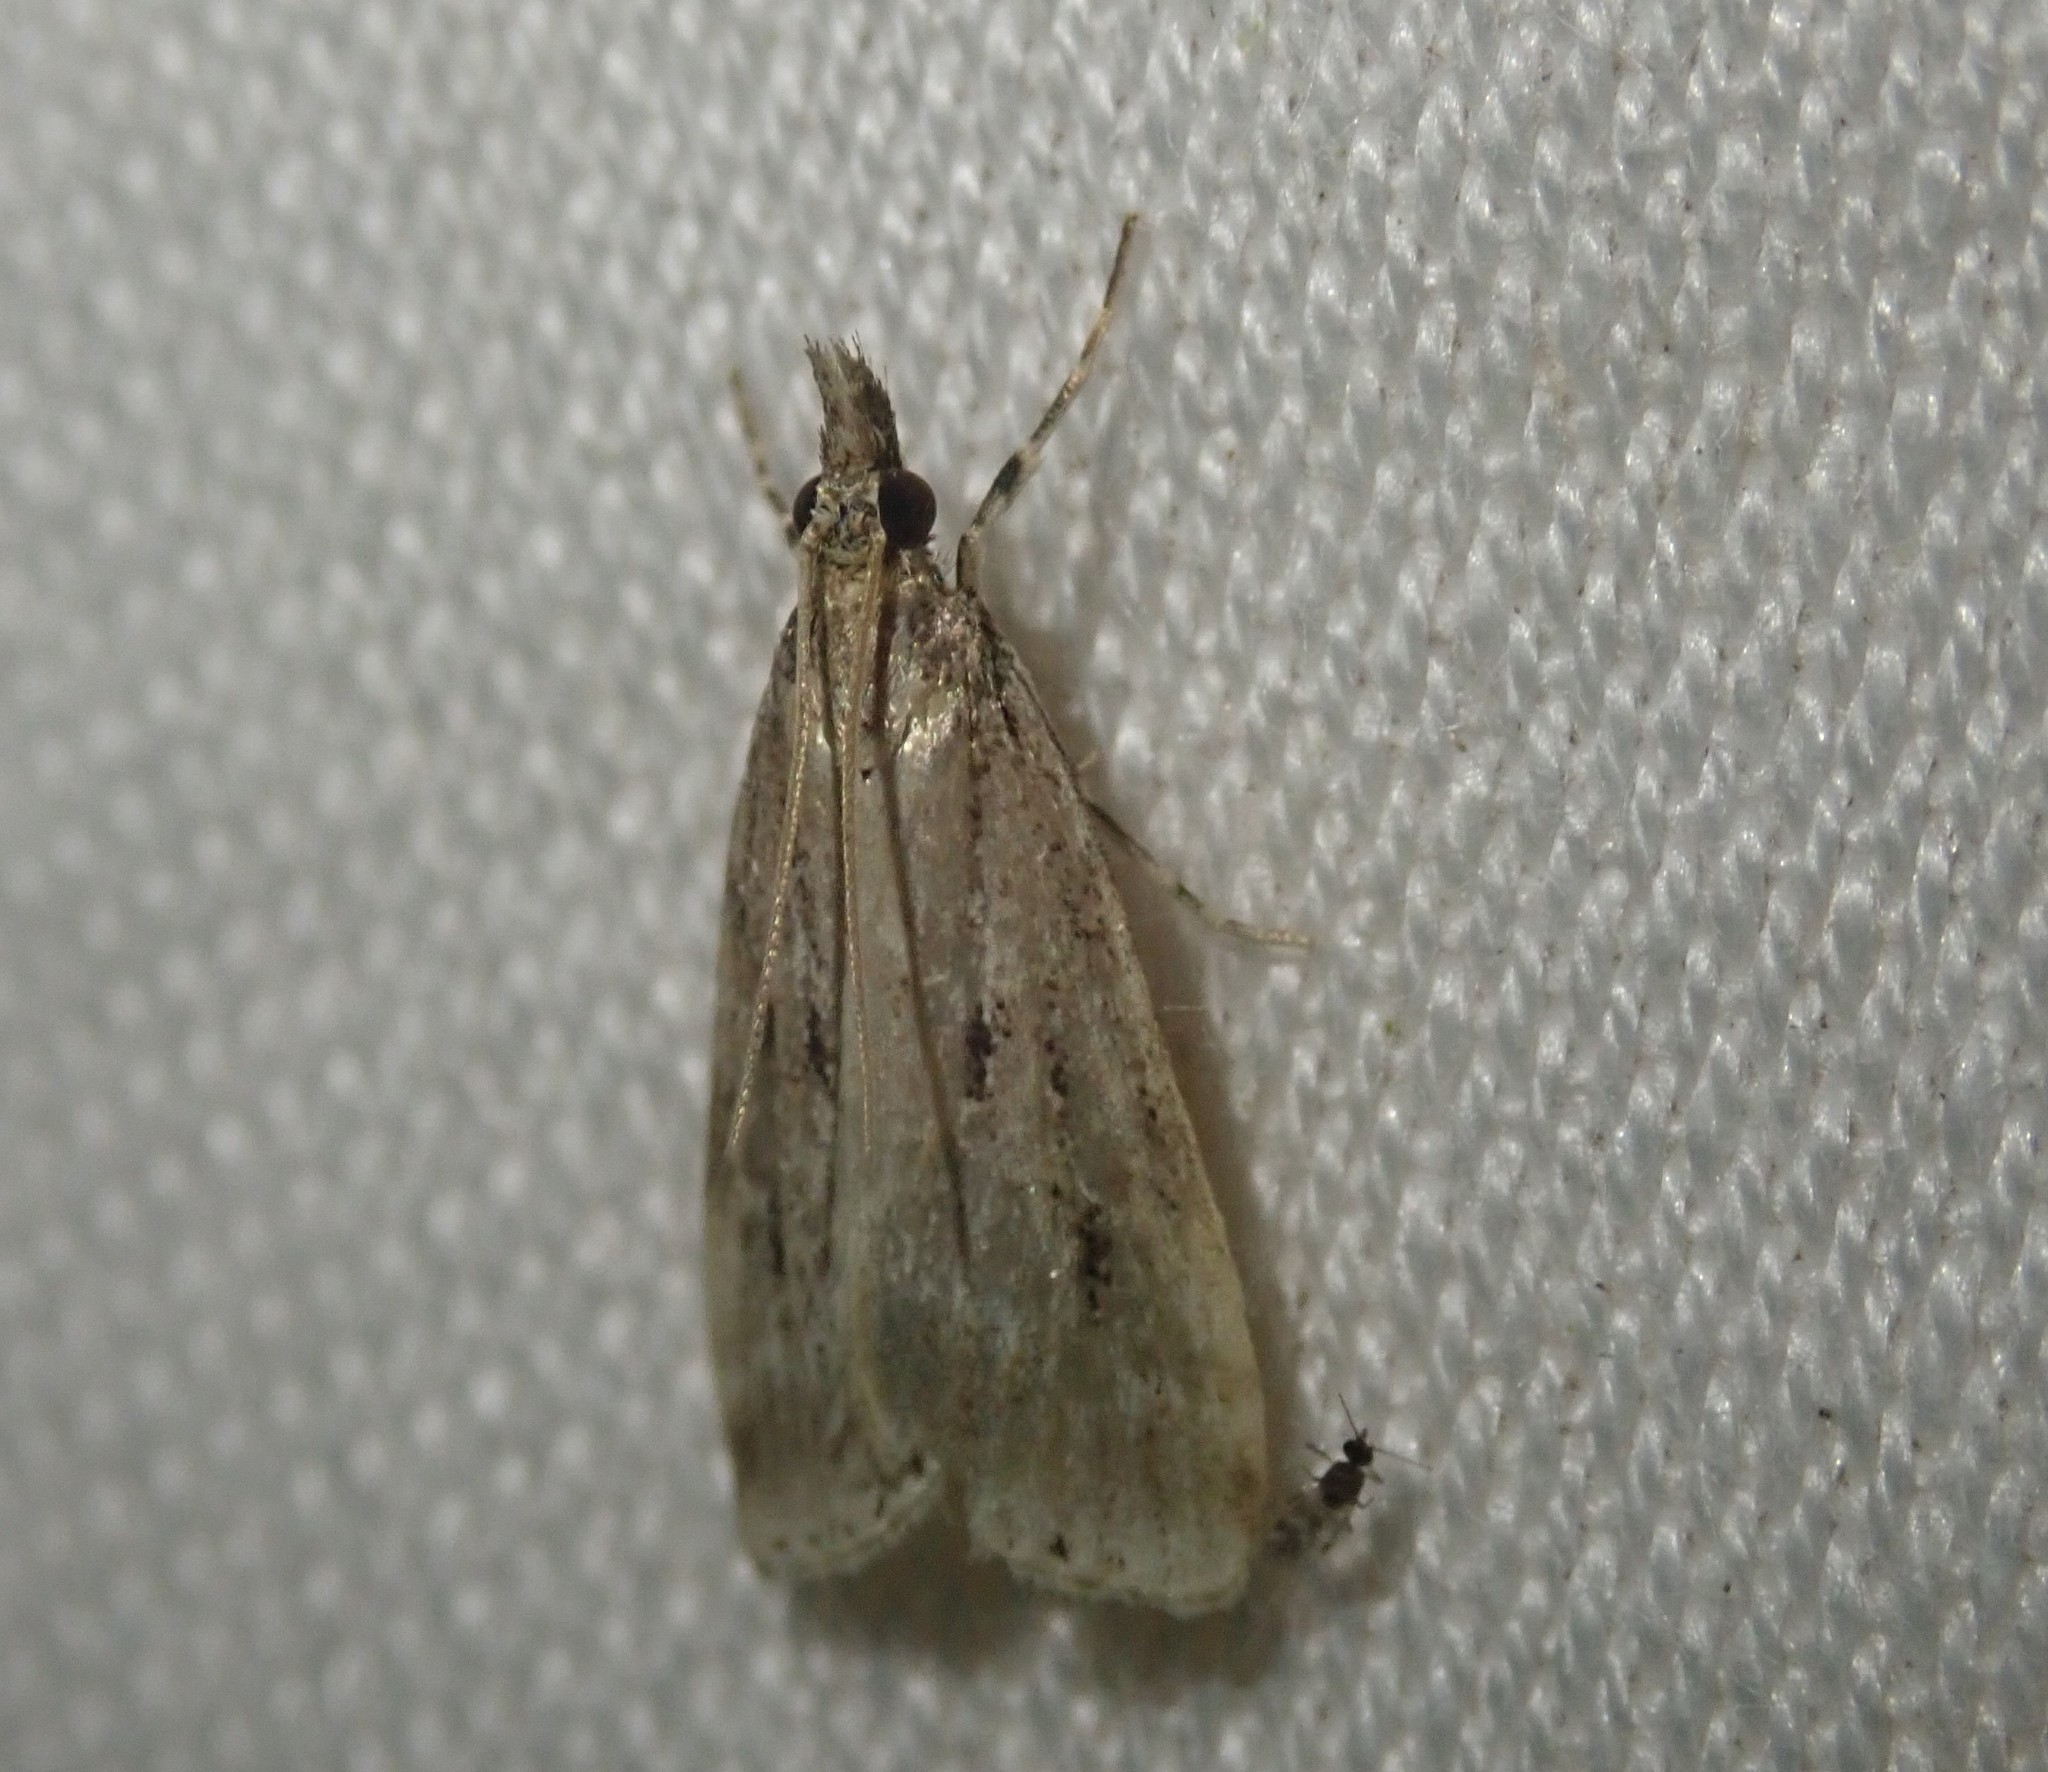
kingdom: Animalia
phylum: Arthropoda
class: Insecta
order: Lepidoptera
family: Crambidae
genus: Eudonia
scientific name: Eudonia truncicolella
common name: Ground-moss grey
